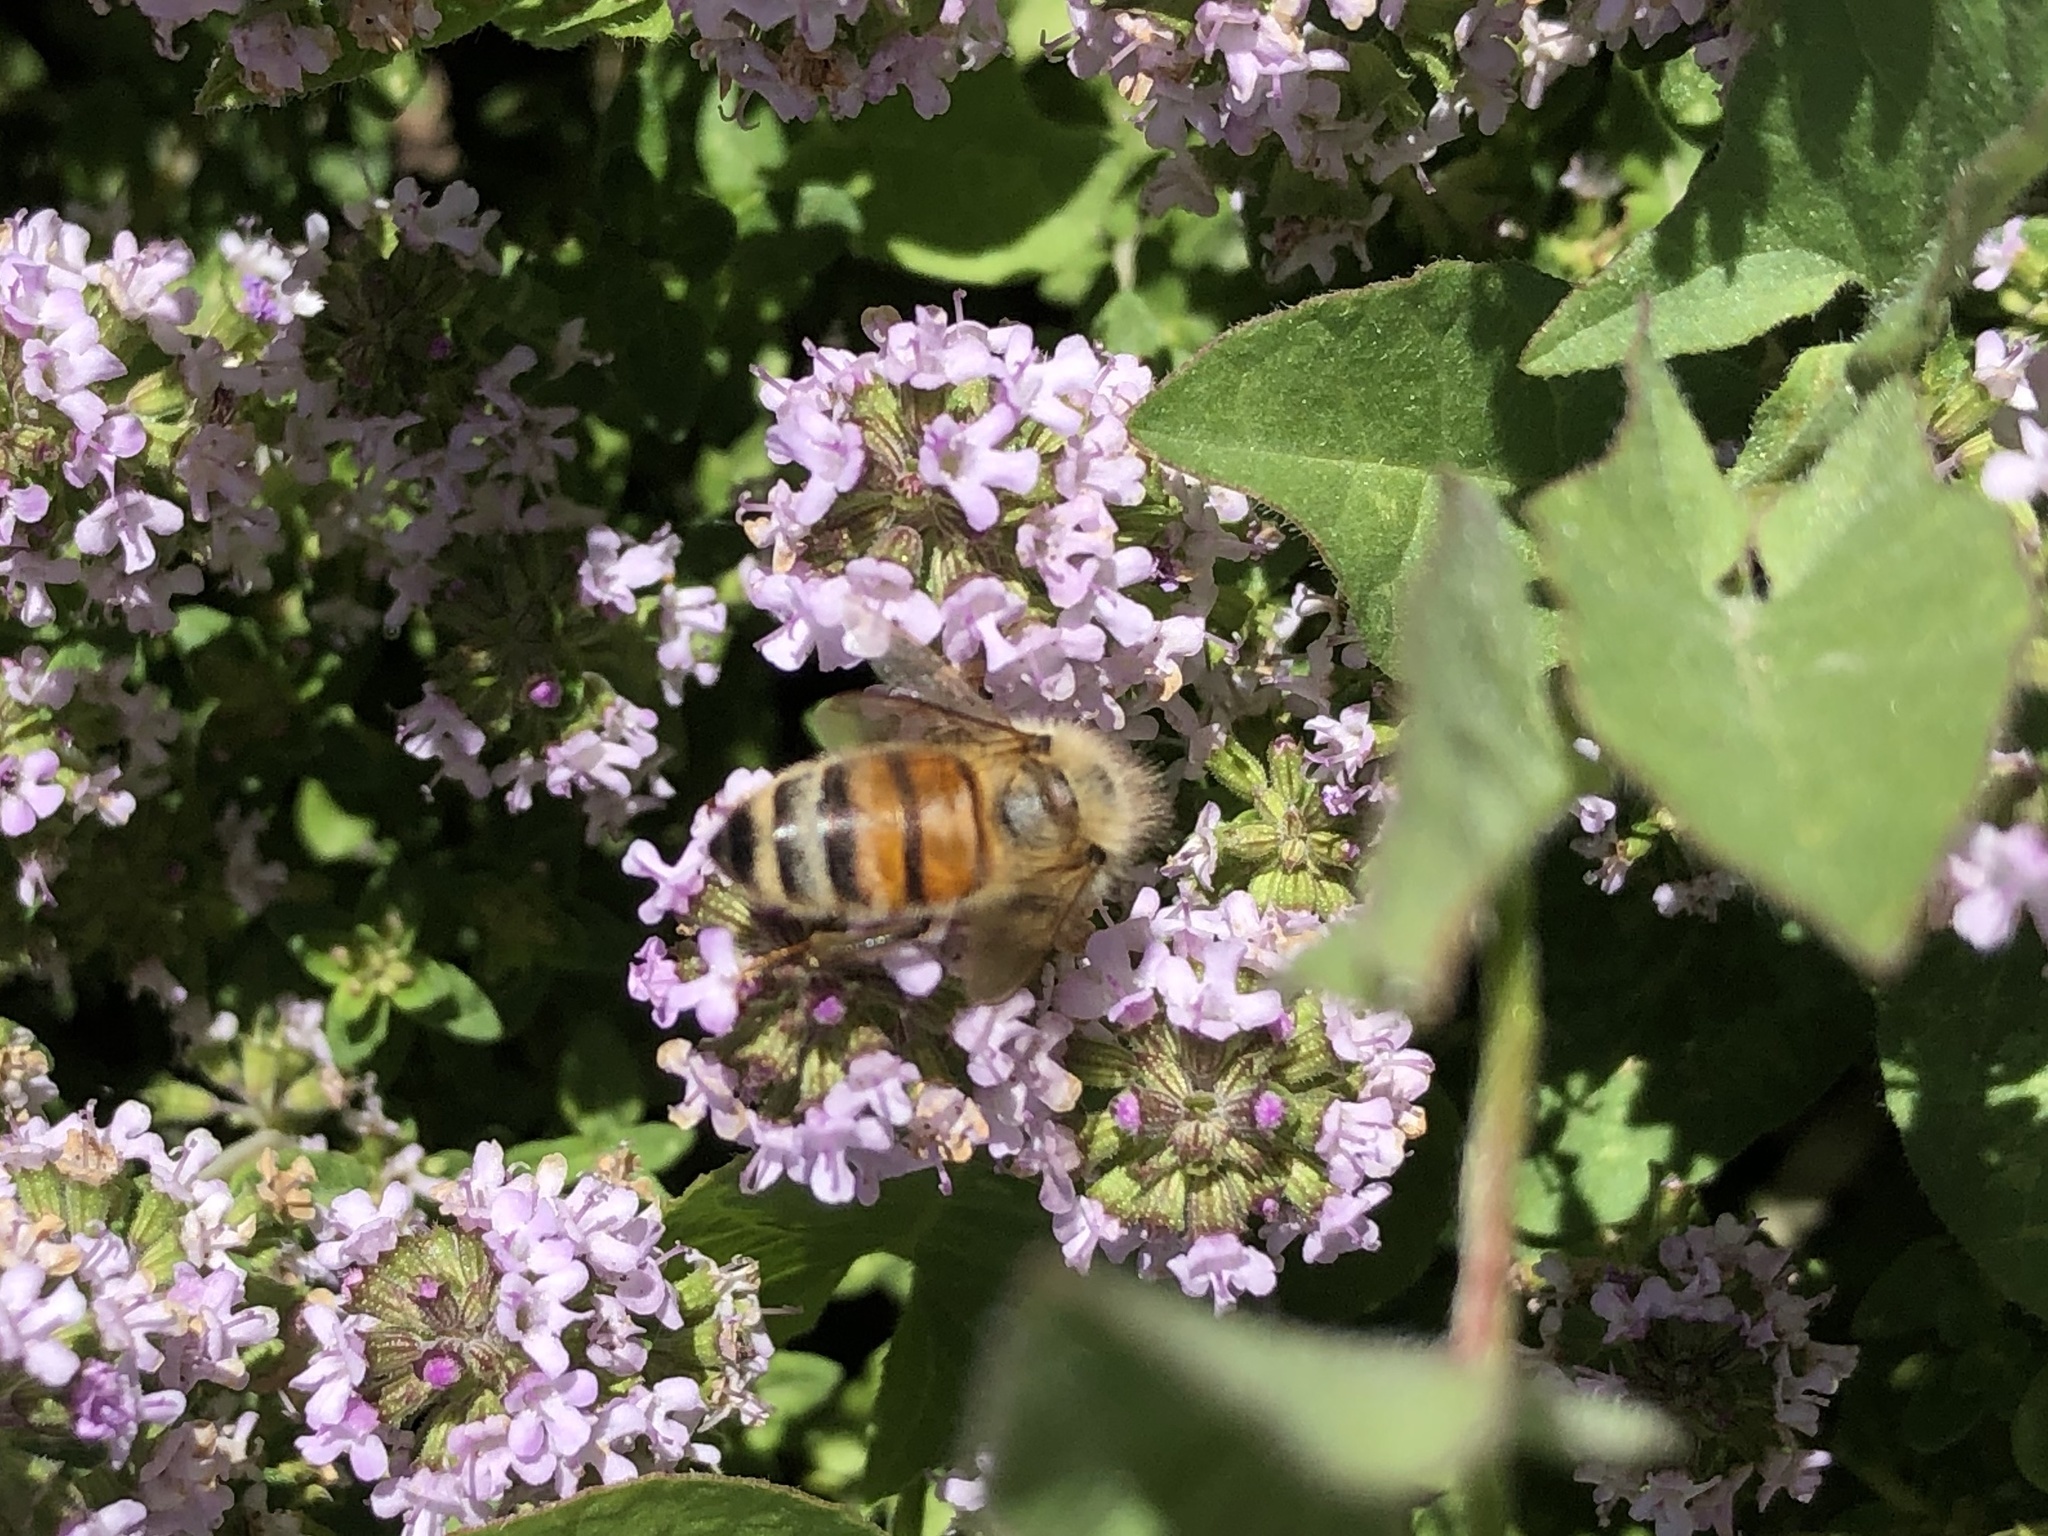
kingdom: Animalia
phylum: Arthropoda
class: Insecta
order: Hymenoptera
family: Apidae
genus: Apis
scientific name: Apis mellifera
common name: Honey bee
